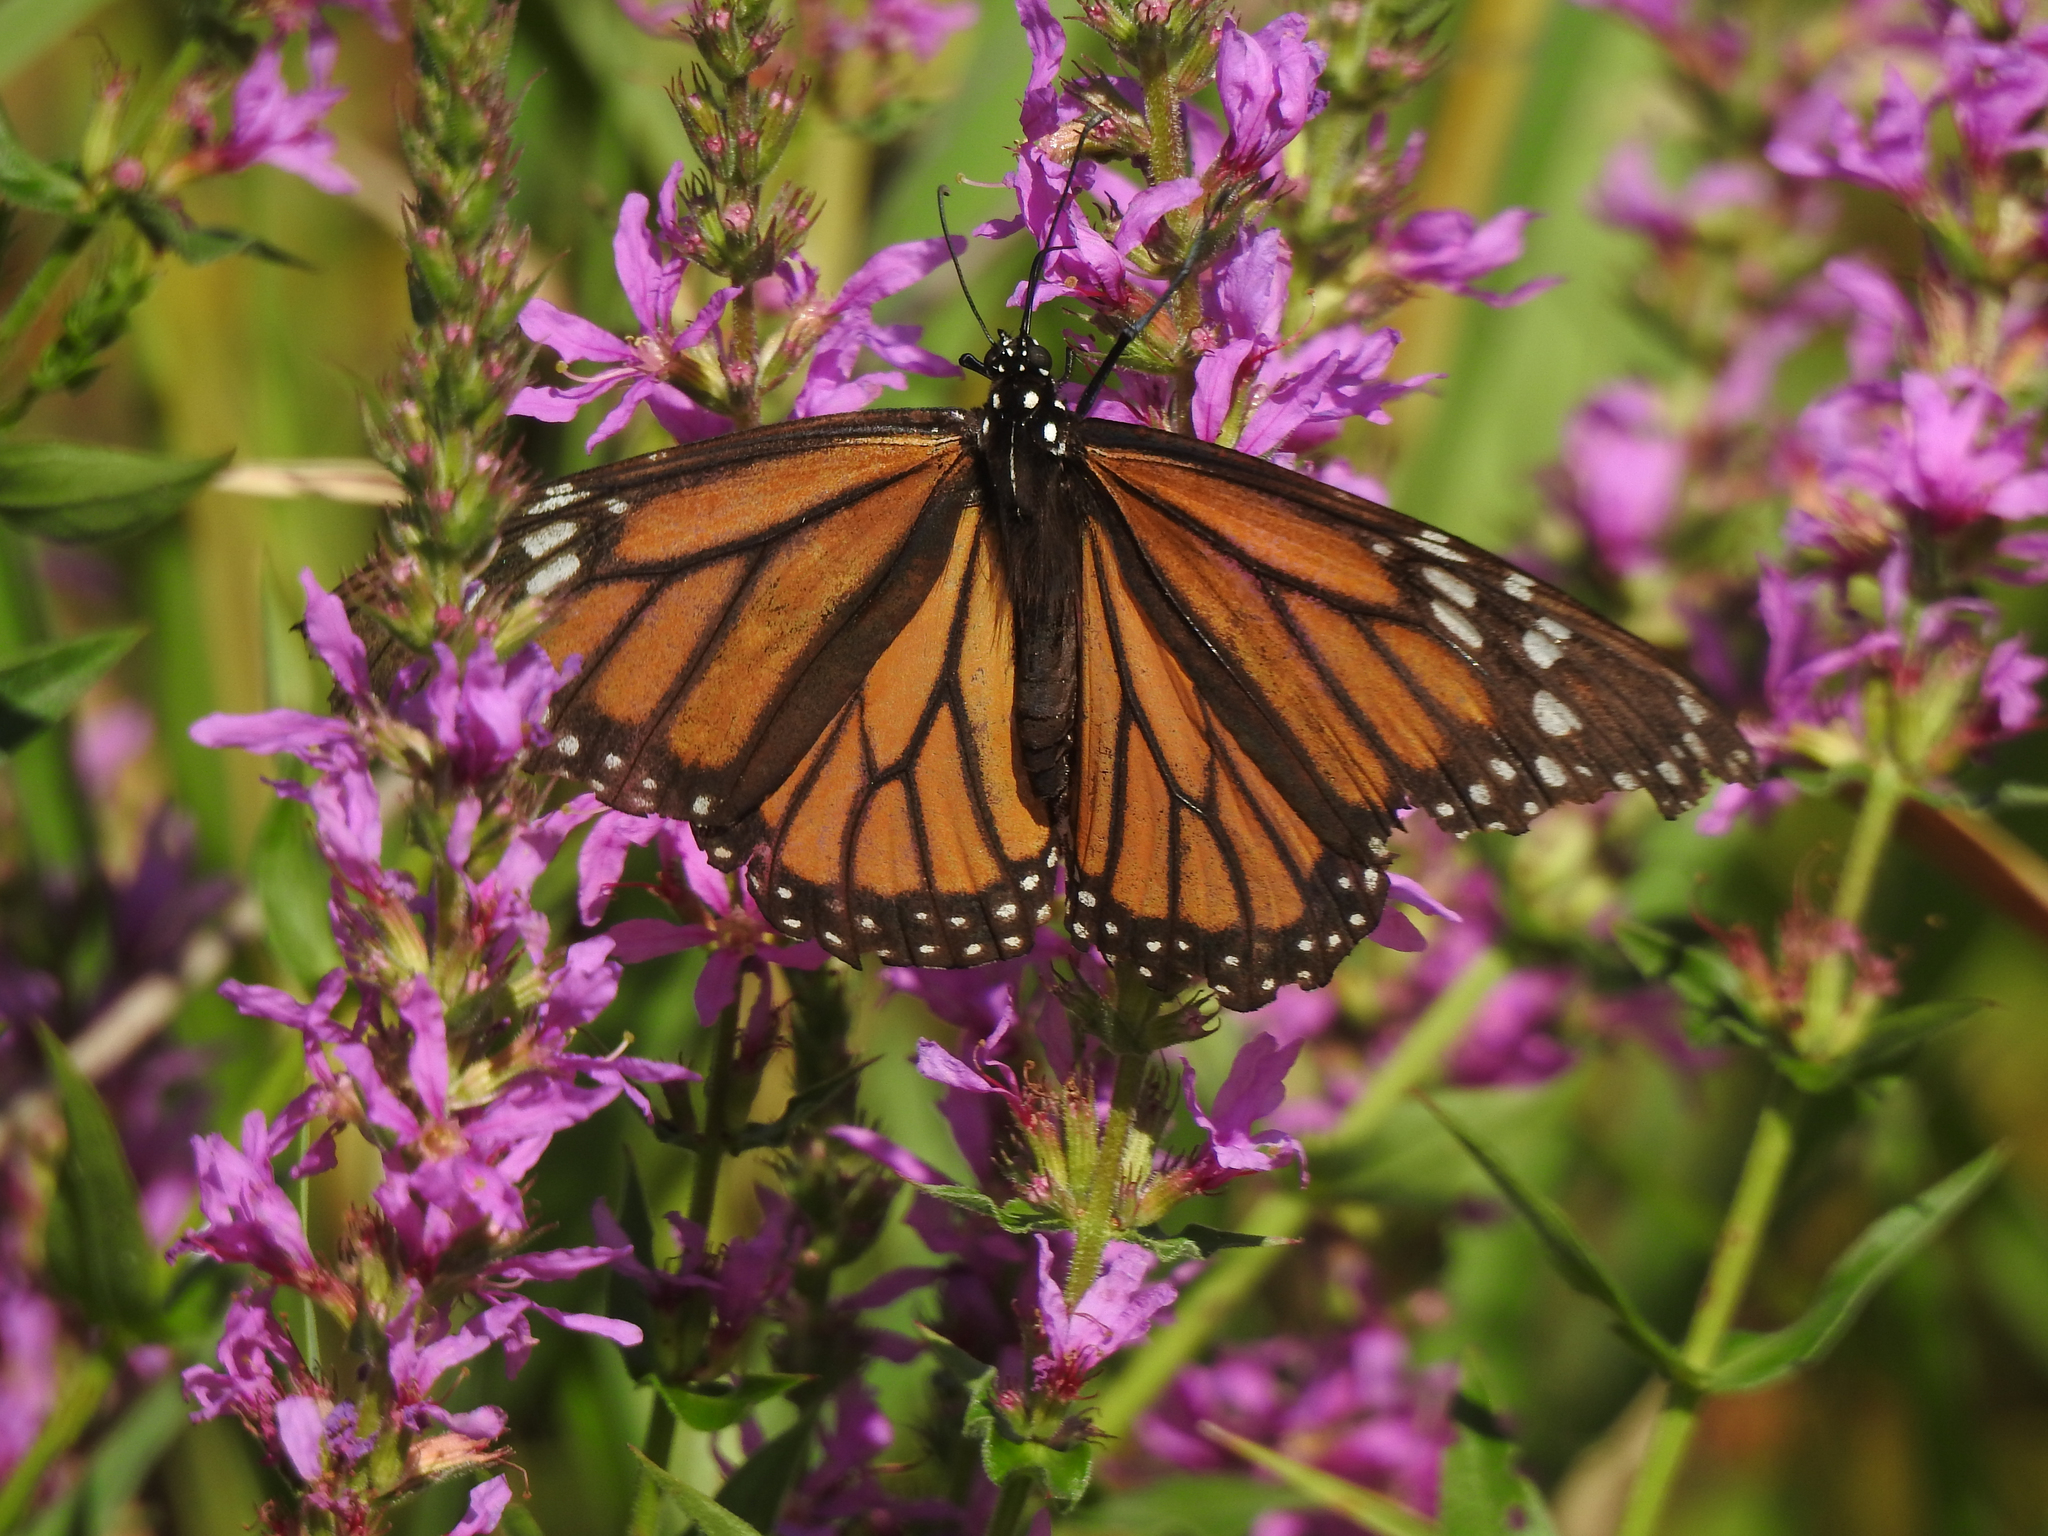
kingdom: Animalia
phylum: Arthropoda
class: Insecta
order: Lepidoptera
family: Nymphalidae
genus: Danaus
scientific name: Danaus plexippus
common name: Monarch
